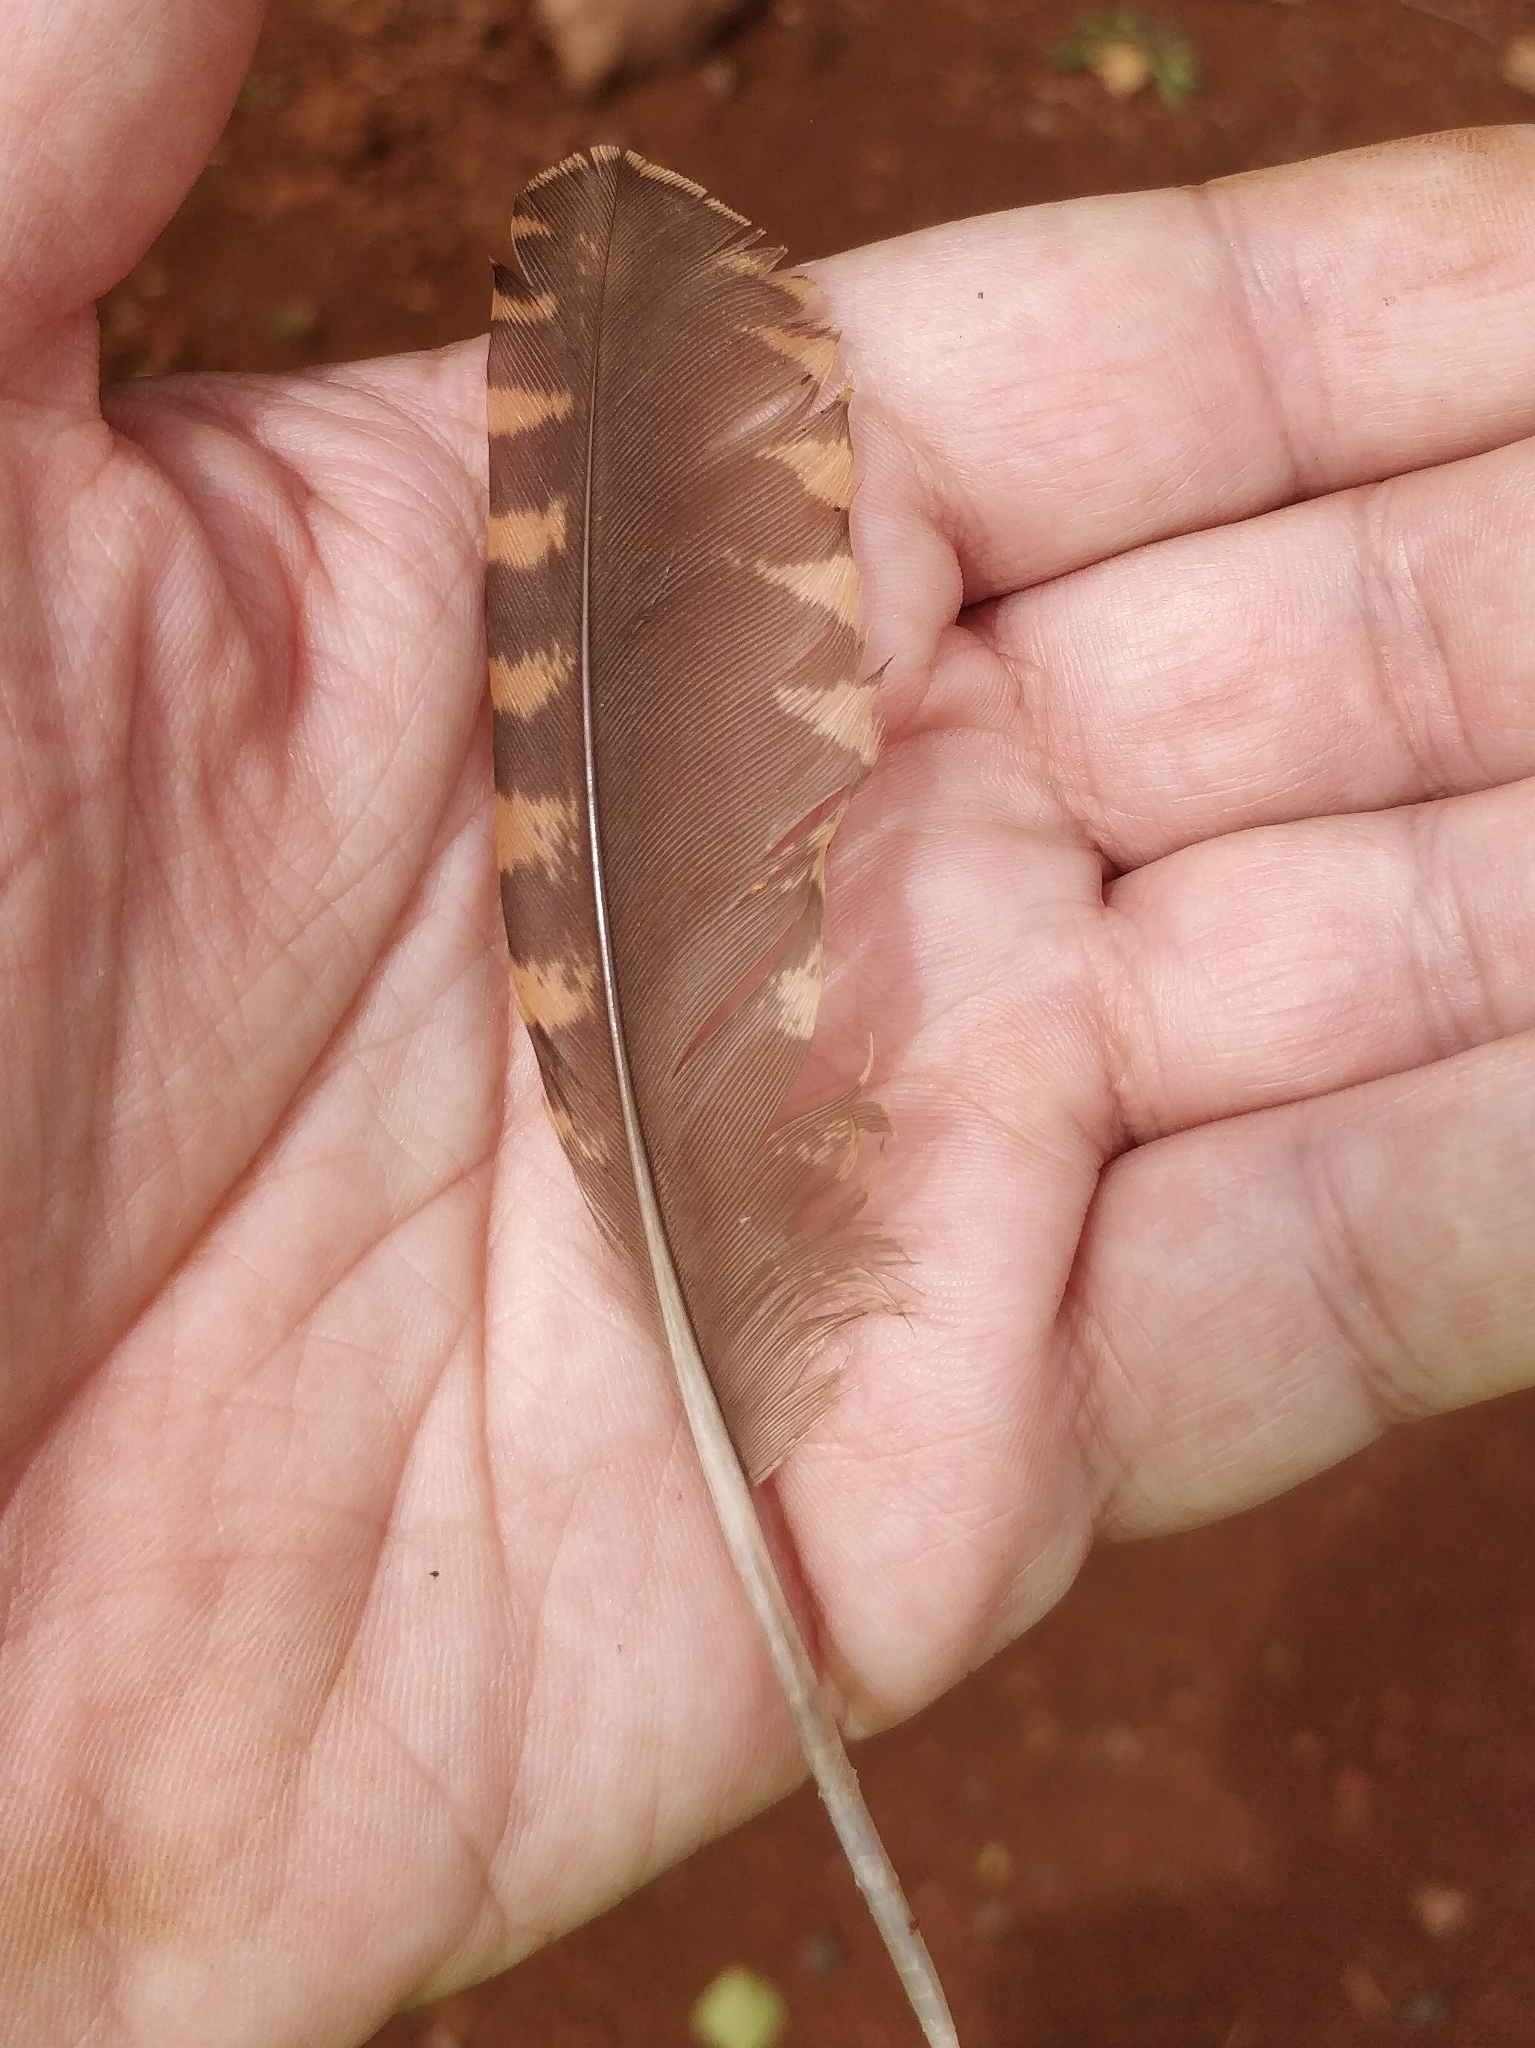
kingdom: Animalia
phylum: Chordata
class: Aves
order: Charadriiformes
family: Scolopacidae
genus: Scolopax
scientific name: Scolopax rusticola
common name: Eurasian woodcock
